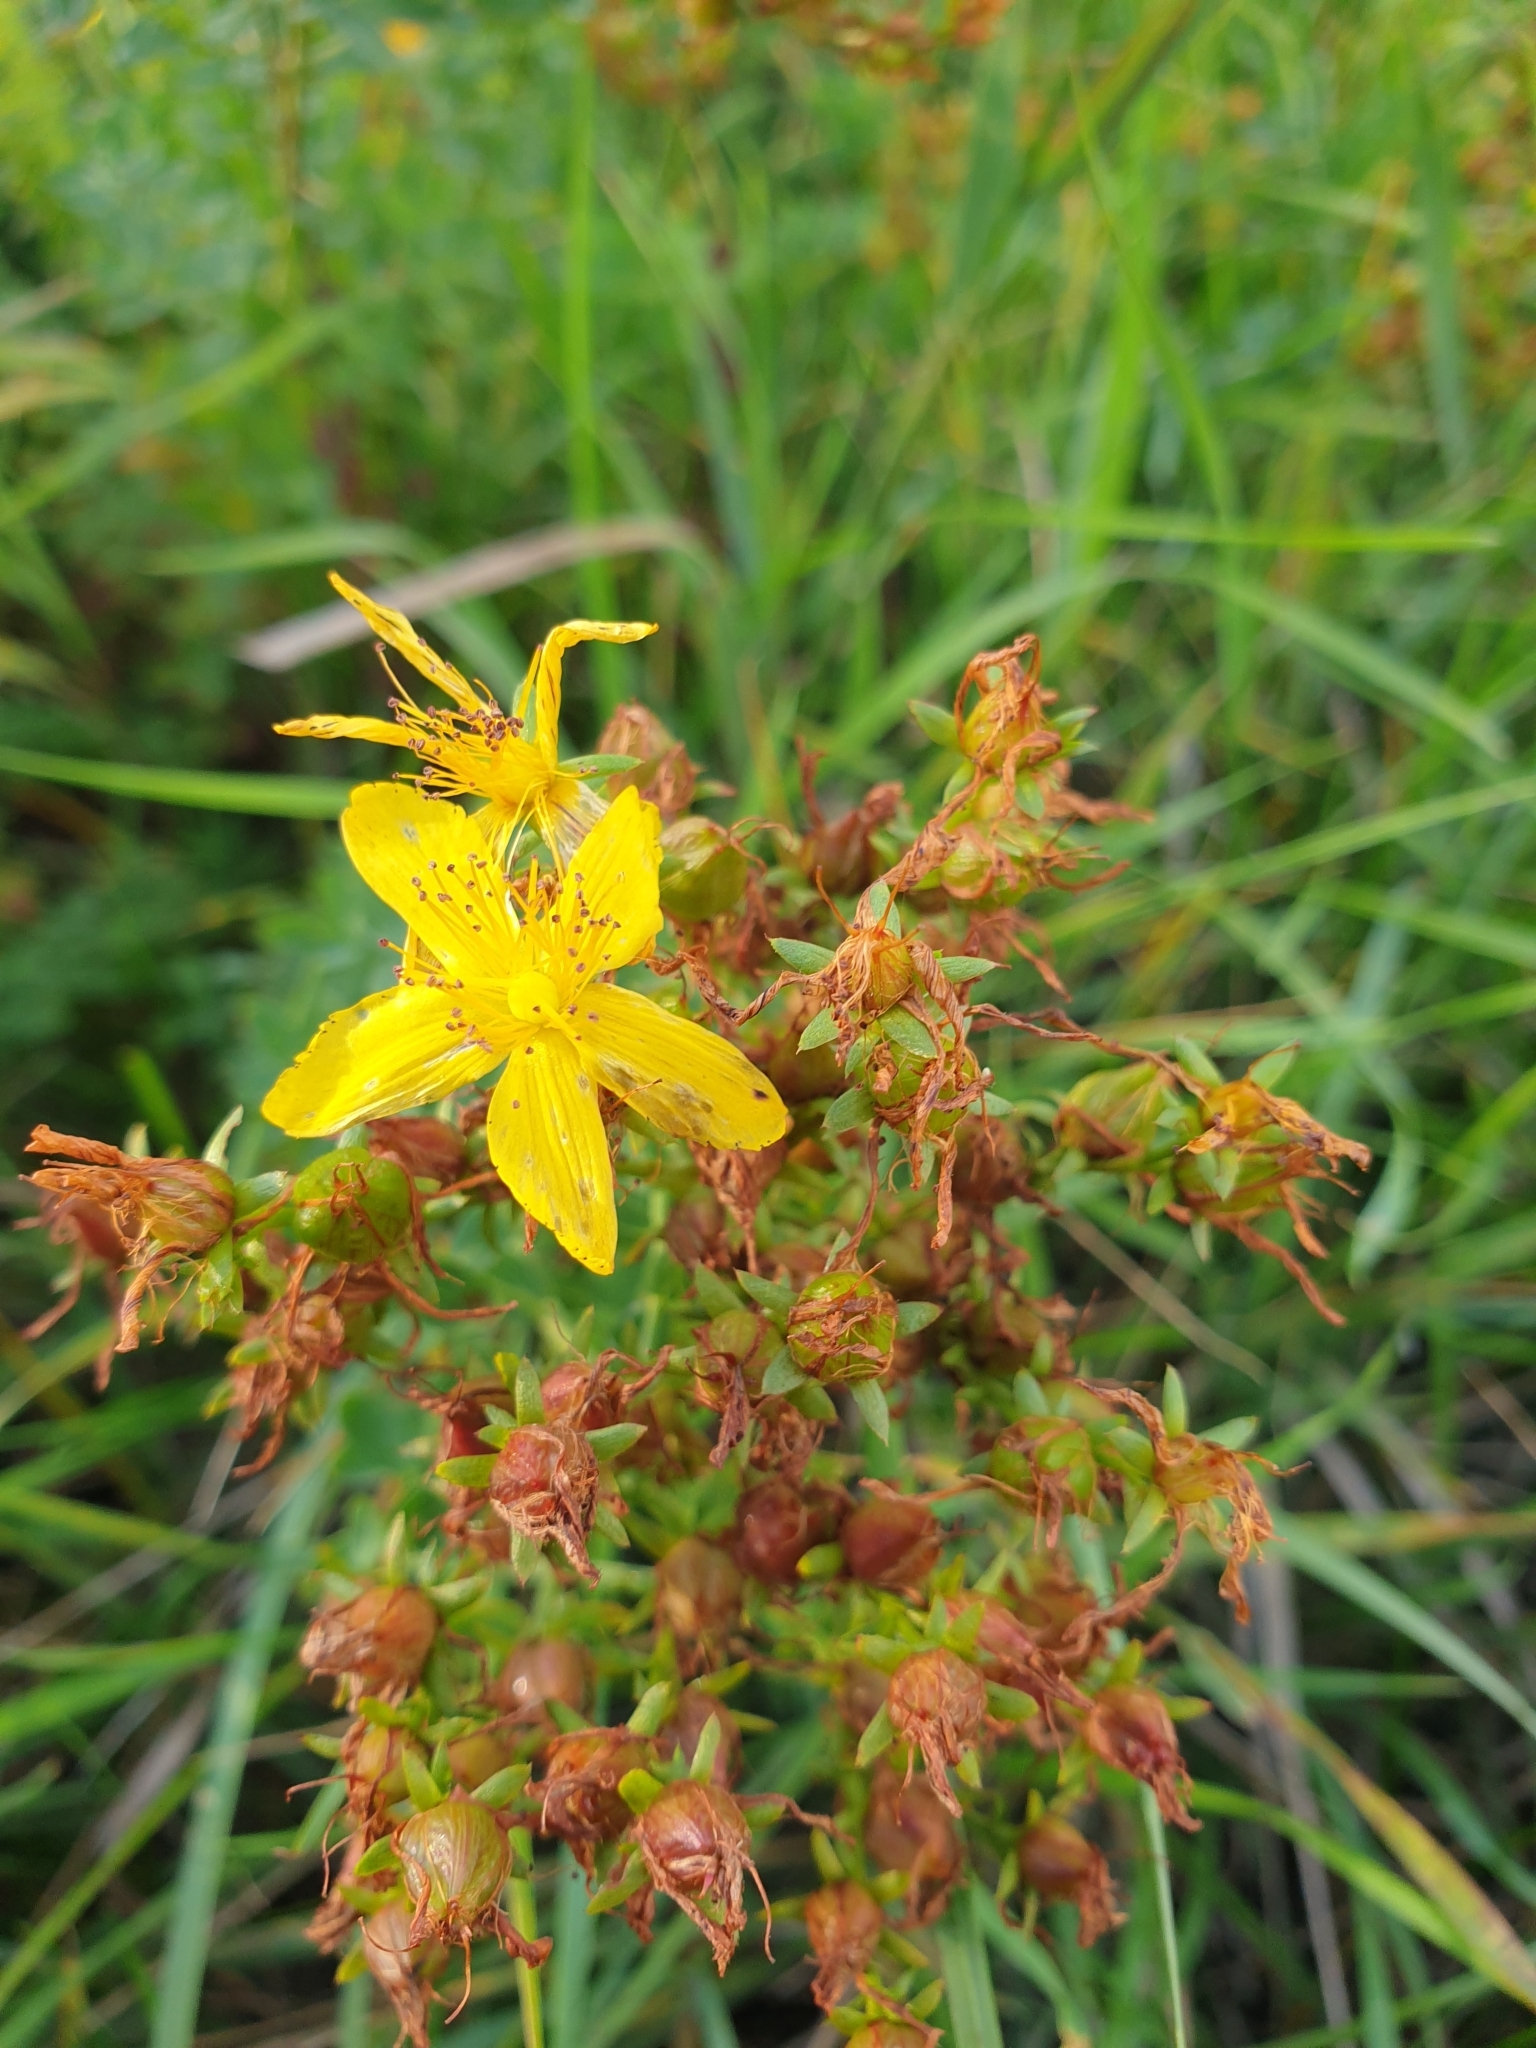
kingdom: Plantae
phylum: Tracheophyta
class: Magnoliopsida
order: Malpighiales
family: Hypericaceae
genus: Hypericum
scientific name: Hypericum perforatum
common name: Common st. johnswort
